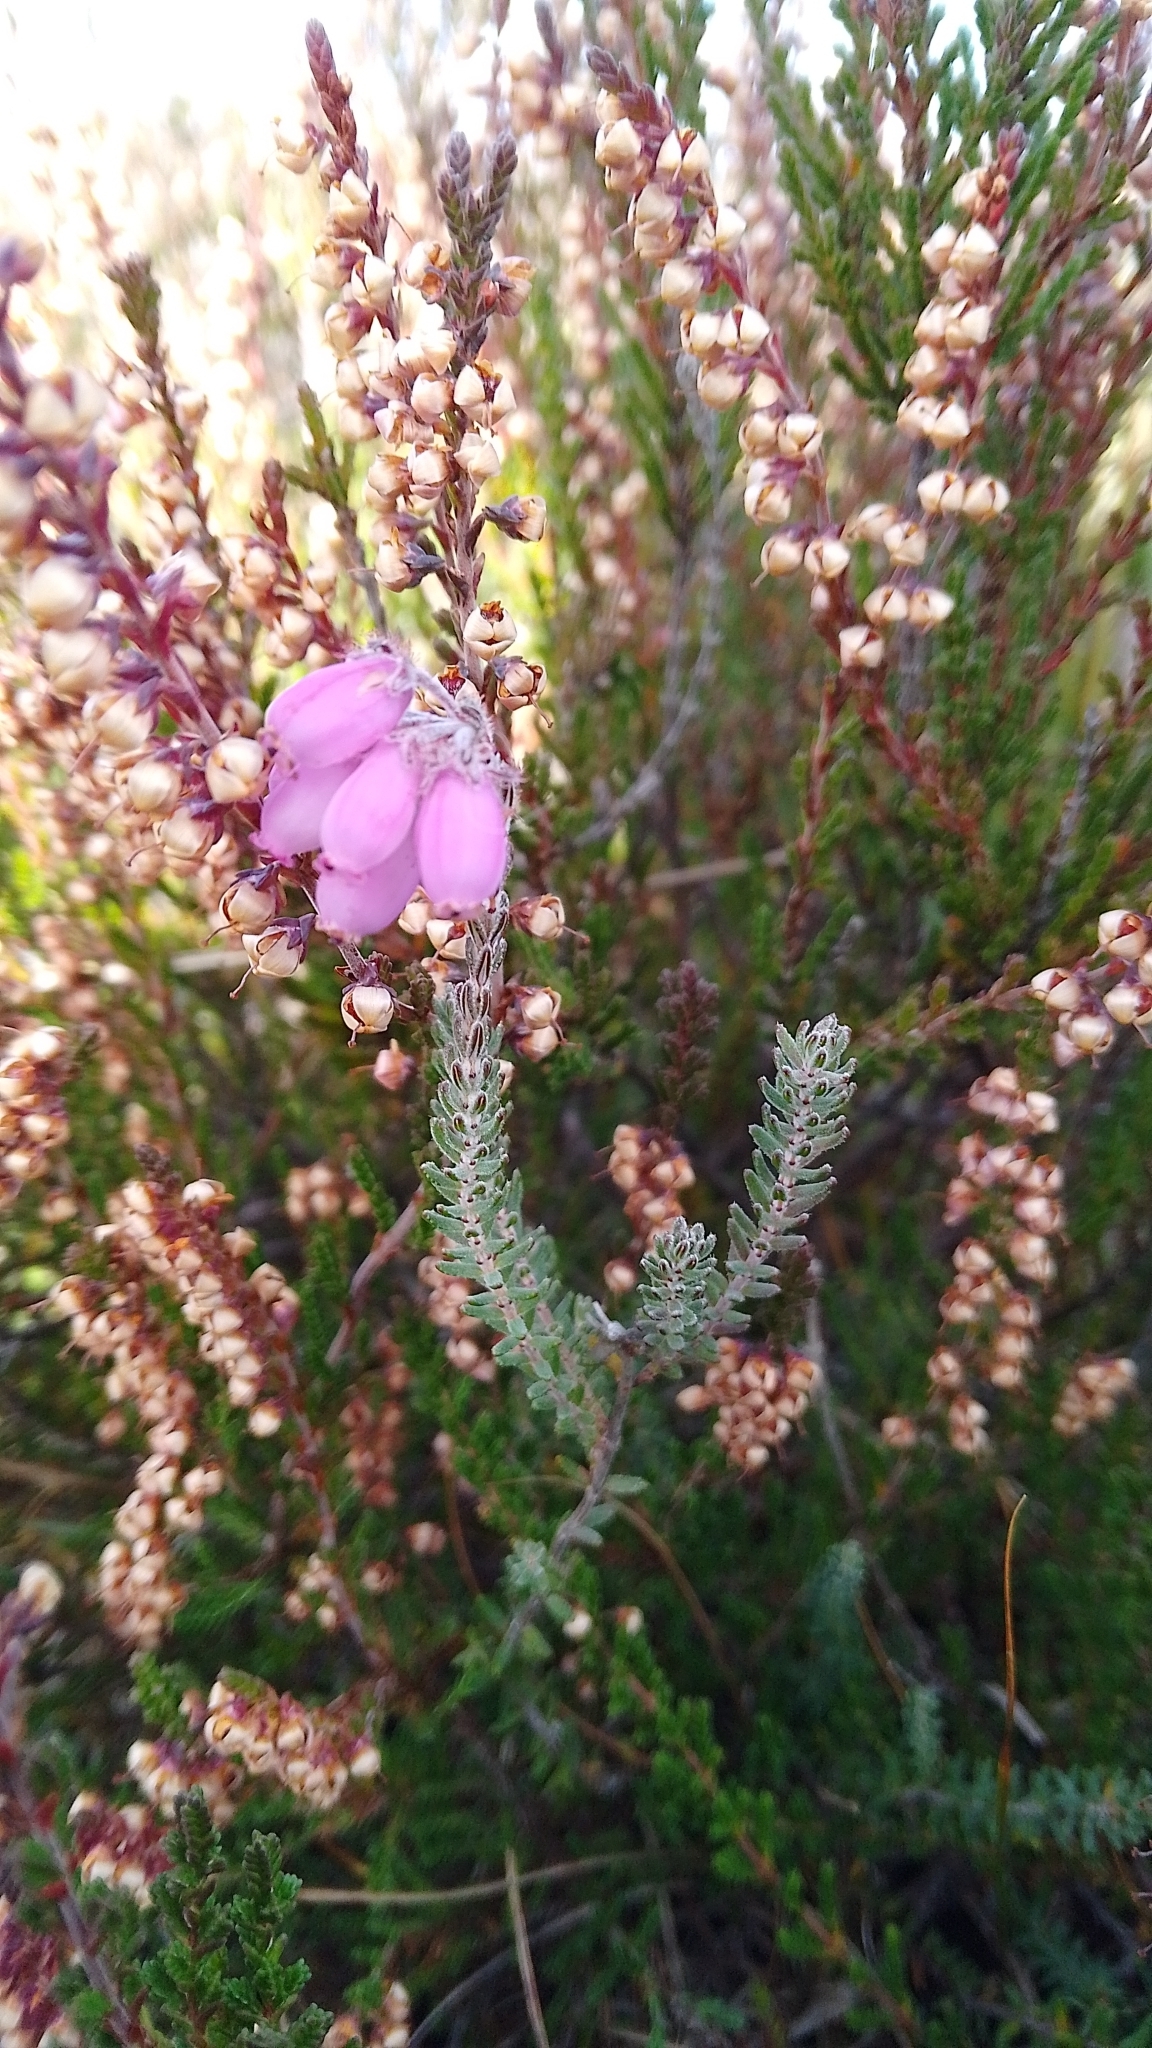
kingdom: Plantae
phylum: Tracheophyta
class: Magnoliopsida
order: Ericales
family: Ericaceae
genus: Erica
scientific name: Erica tetralix
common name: Cross-leaved heath
